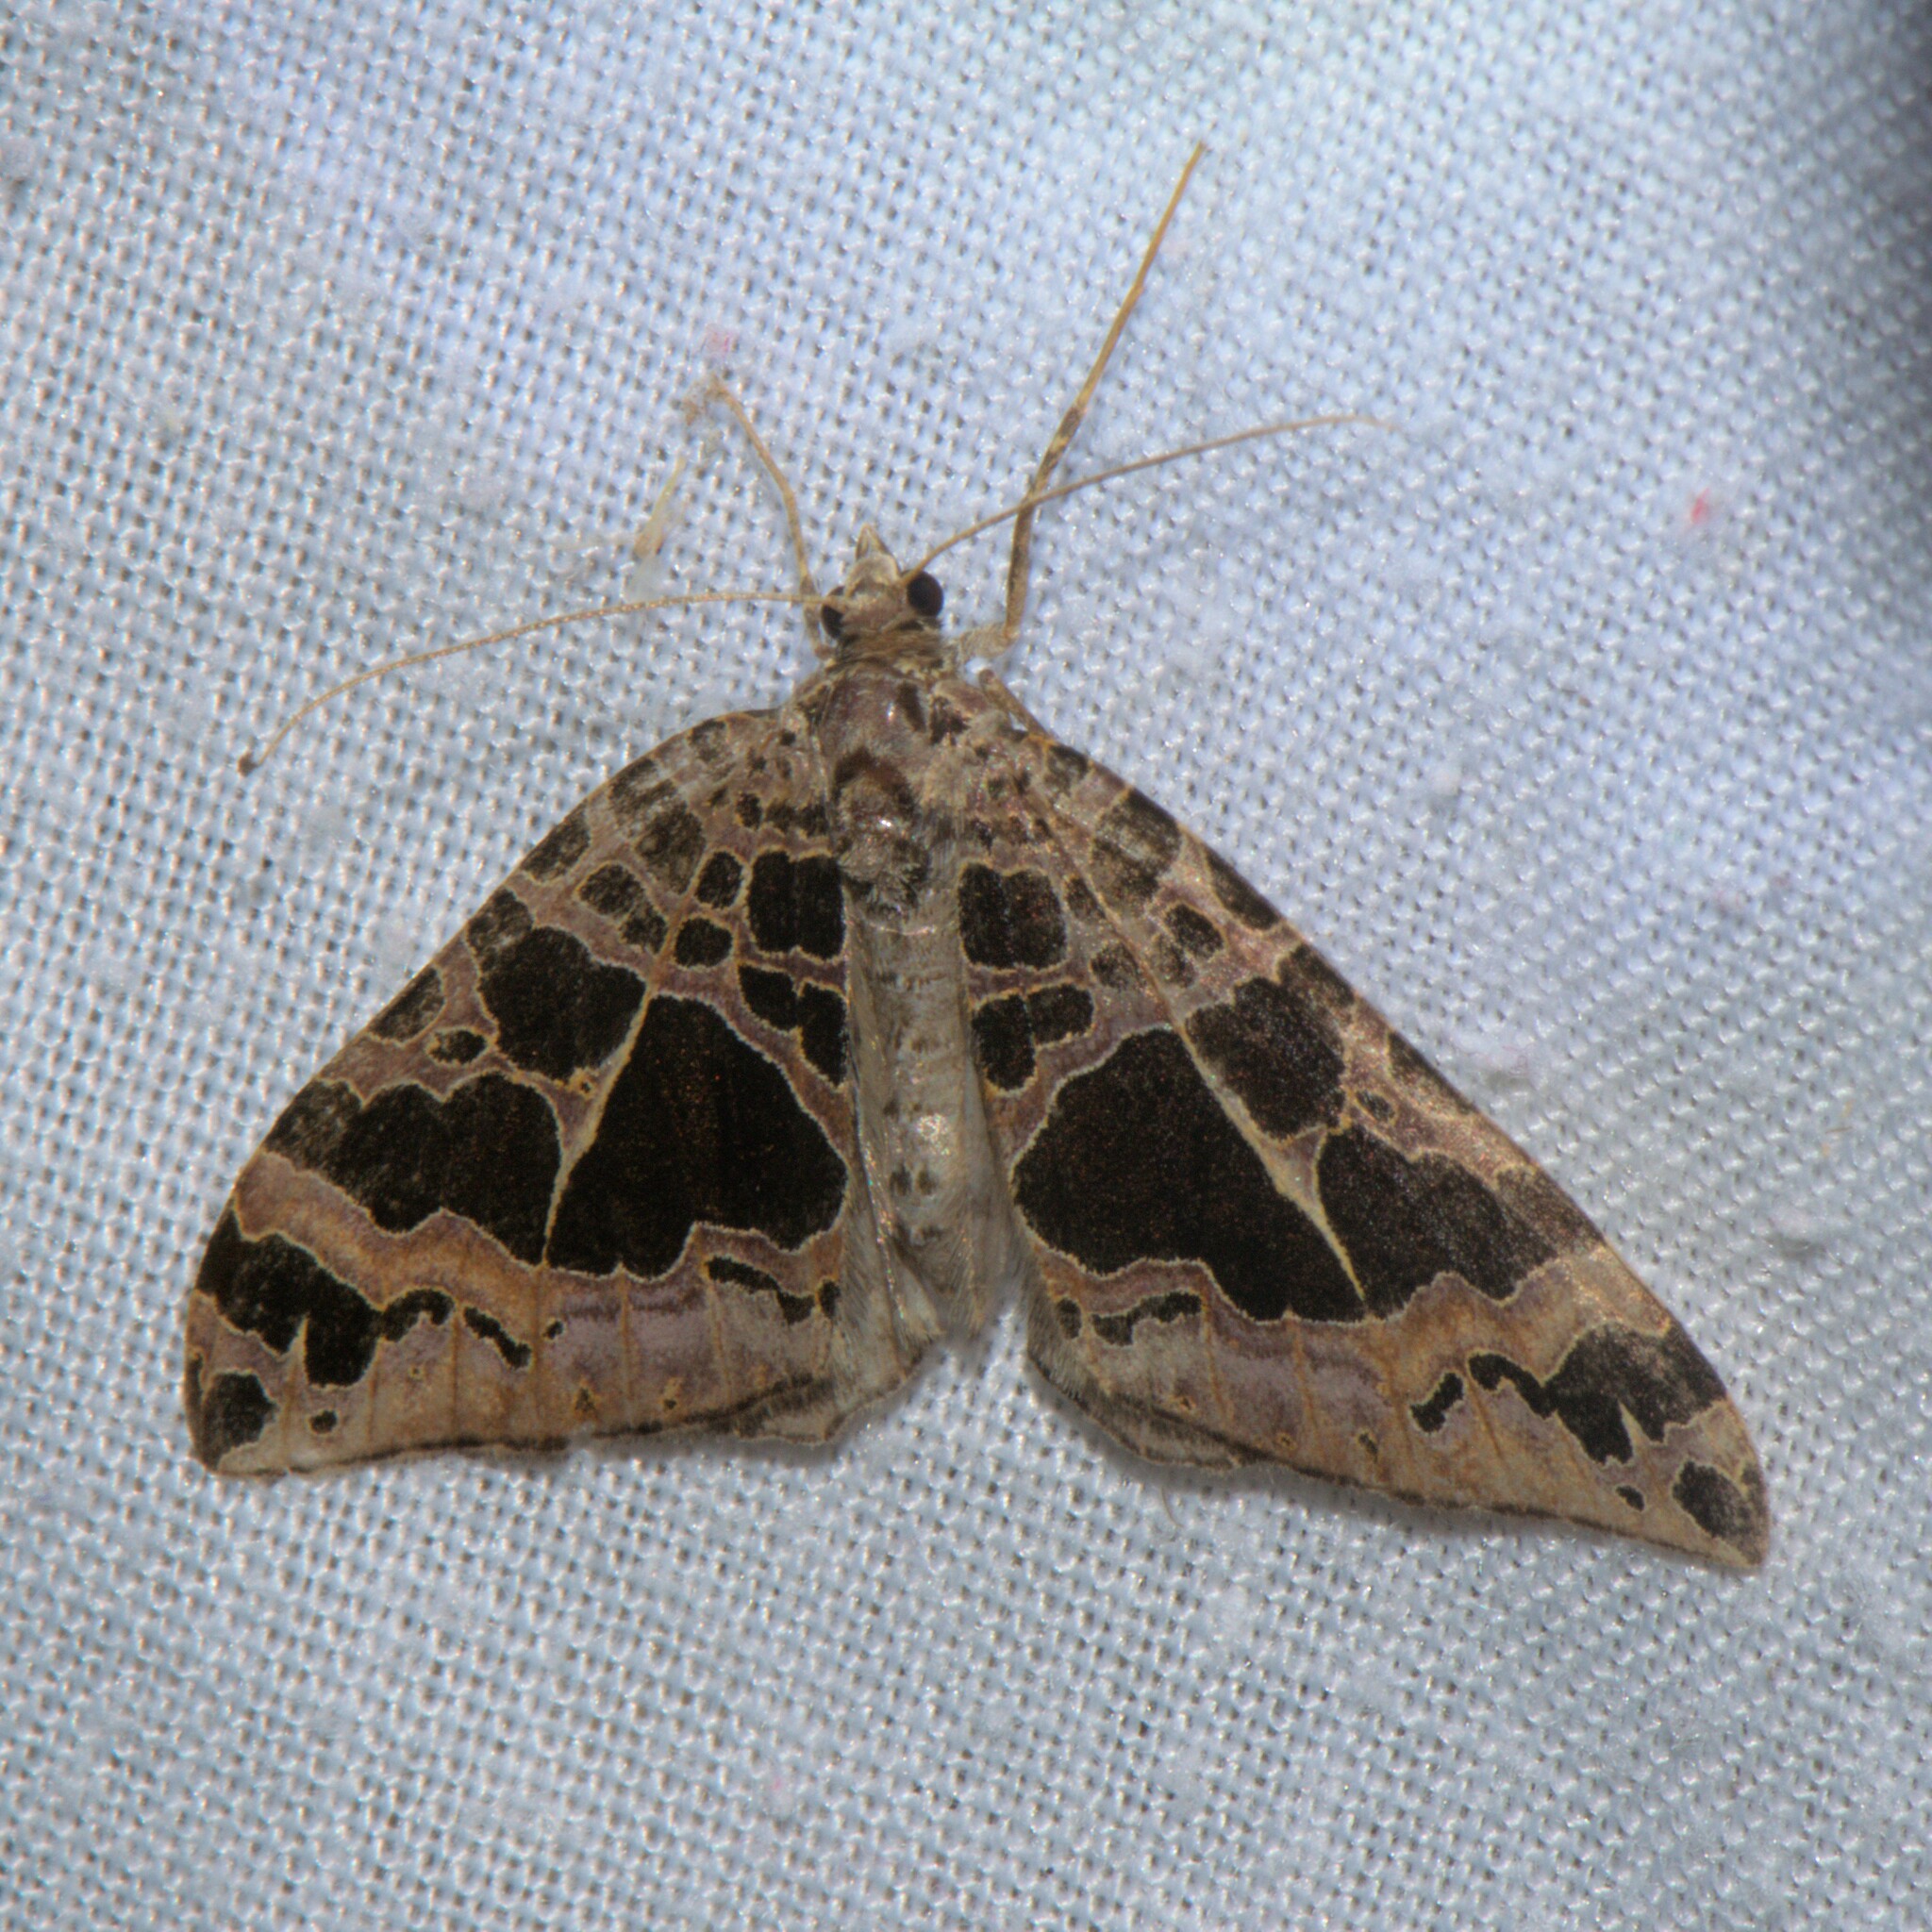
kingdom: Animalia
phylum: Arthropoda
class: Insecta
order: Lepidoptera
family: Geometridae
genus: Hysterura
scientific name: Hysterura multifaria
